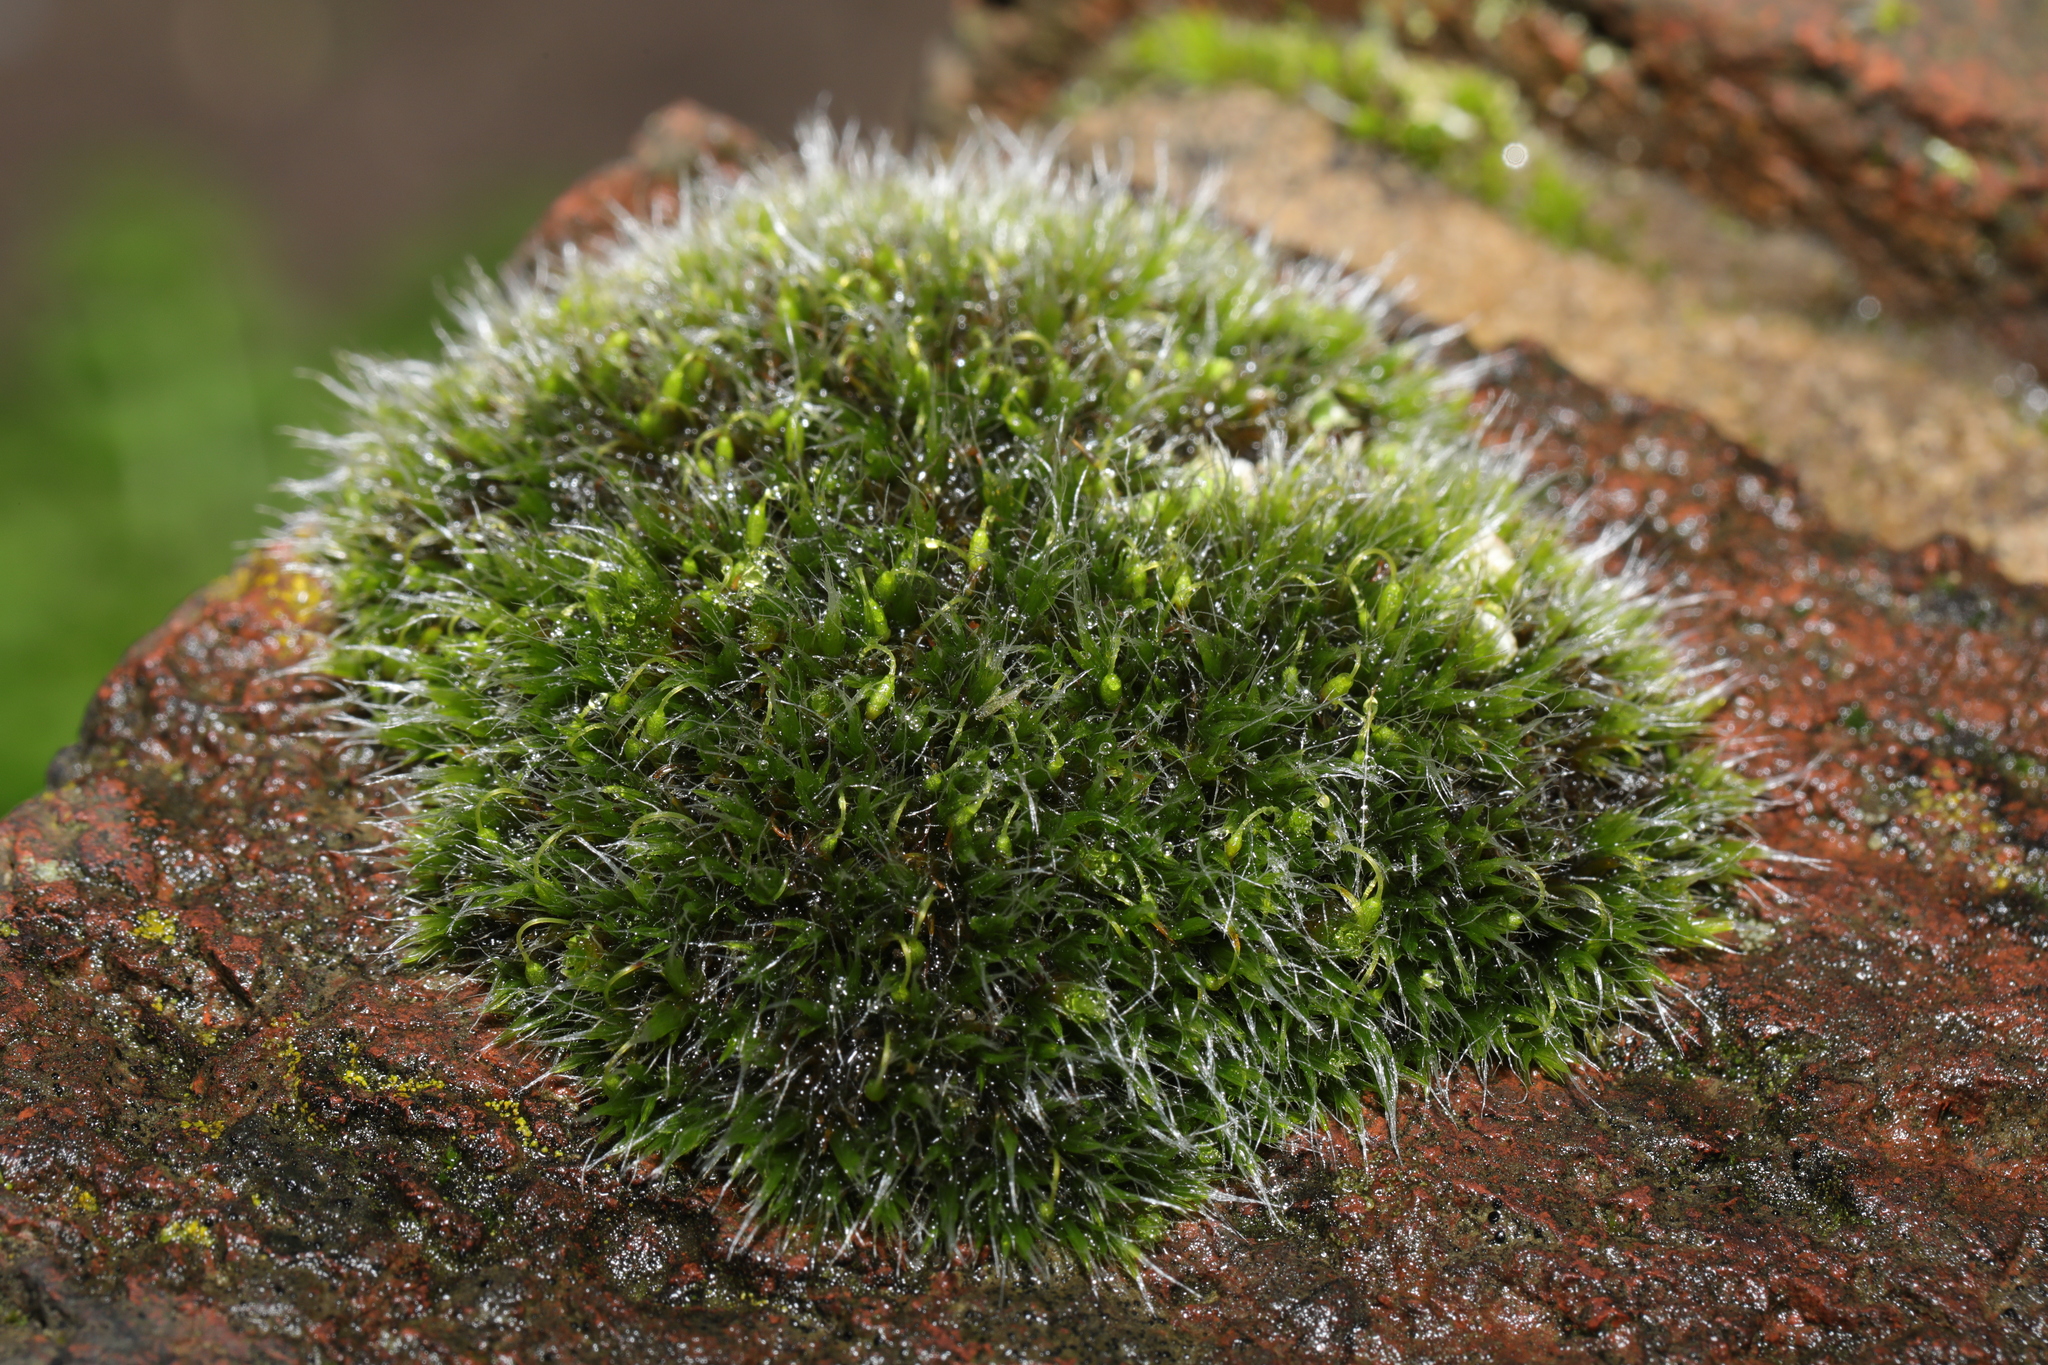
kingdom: Plantae
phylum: Bryophyta
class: Bryopsida
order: Grimmiales
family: Grimmiaceae
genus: Grimmia
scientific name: Grimmia pulvinata
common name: Grey-cushioned grimmia
